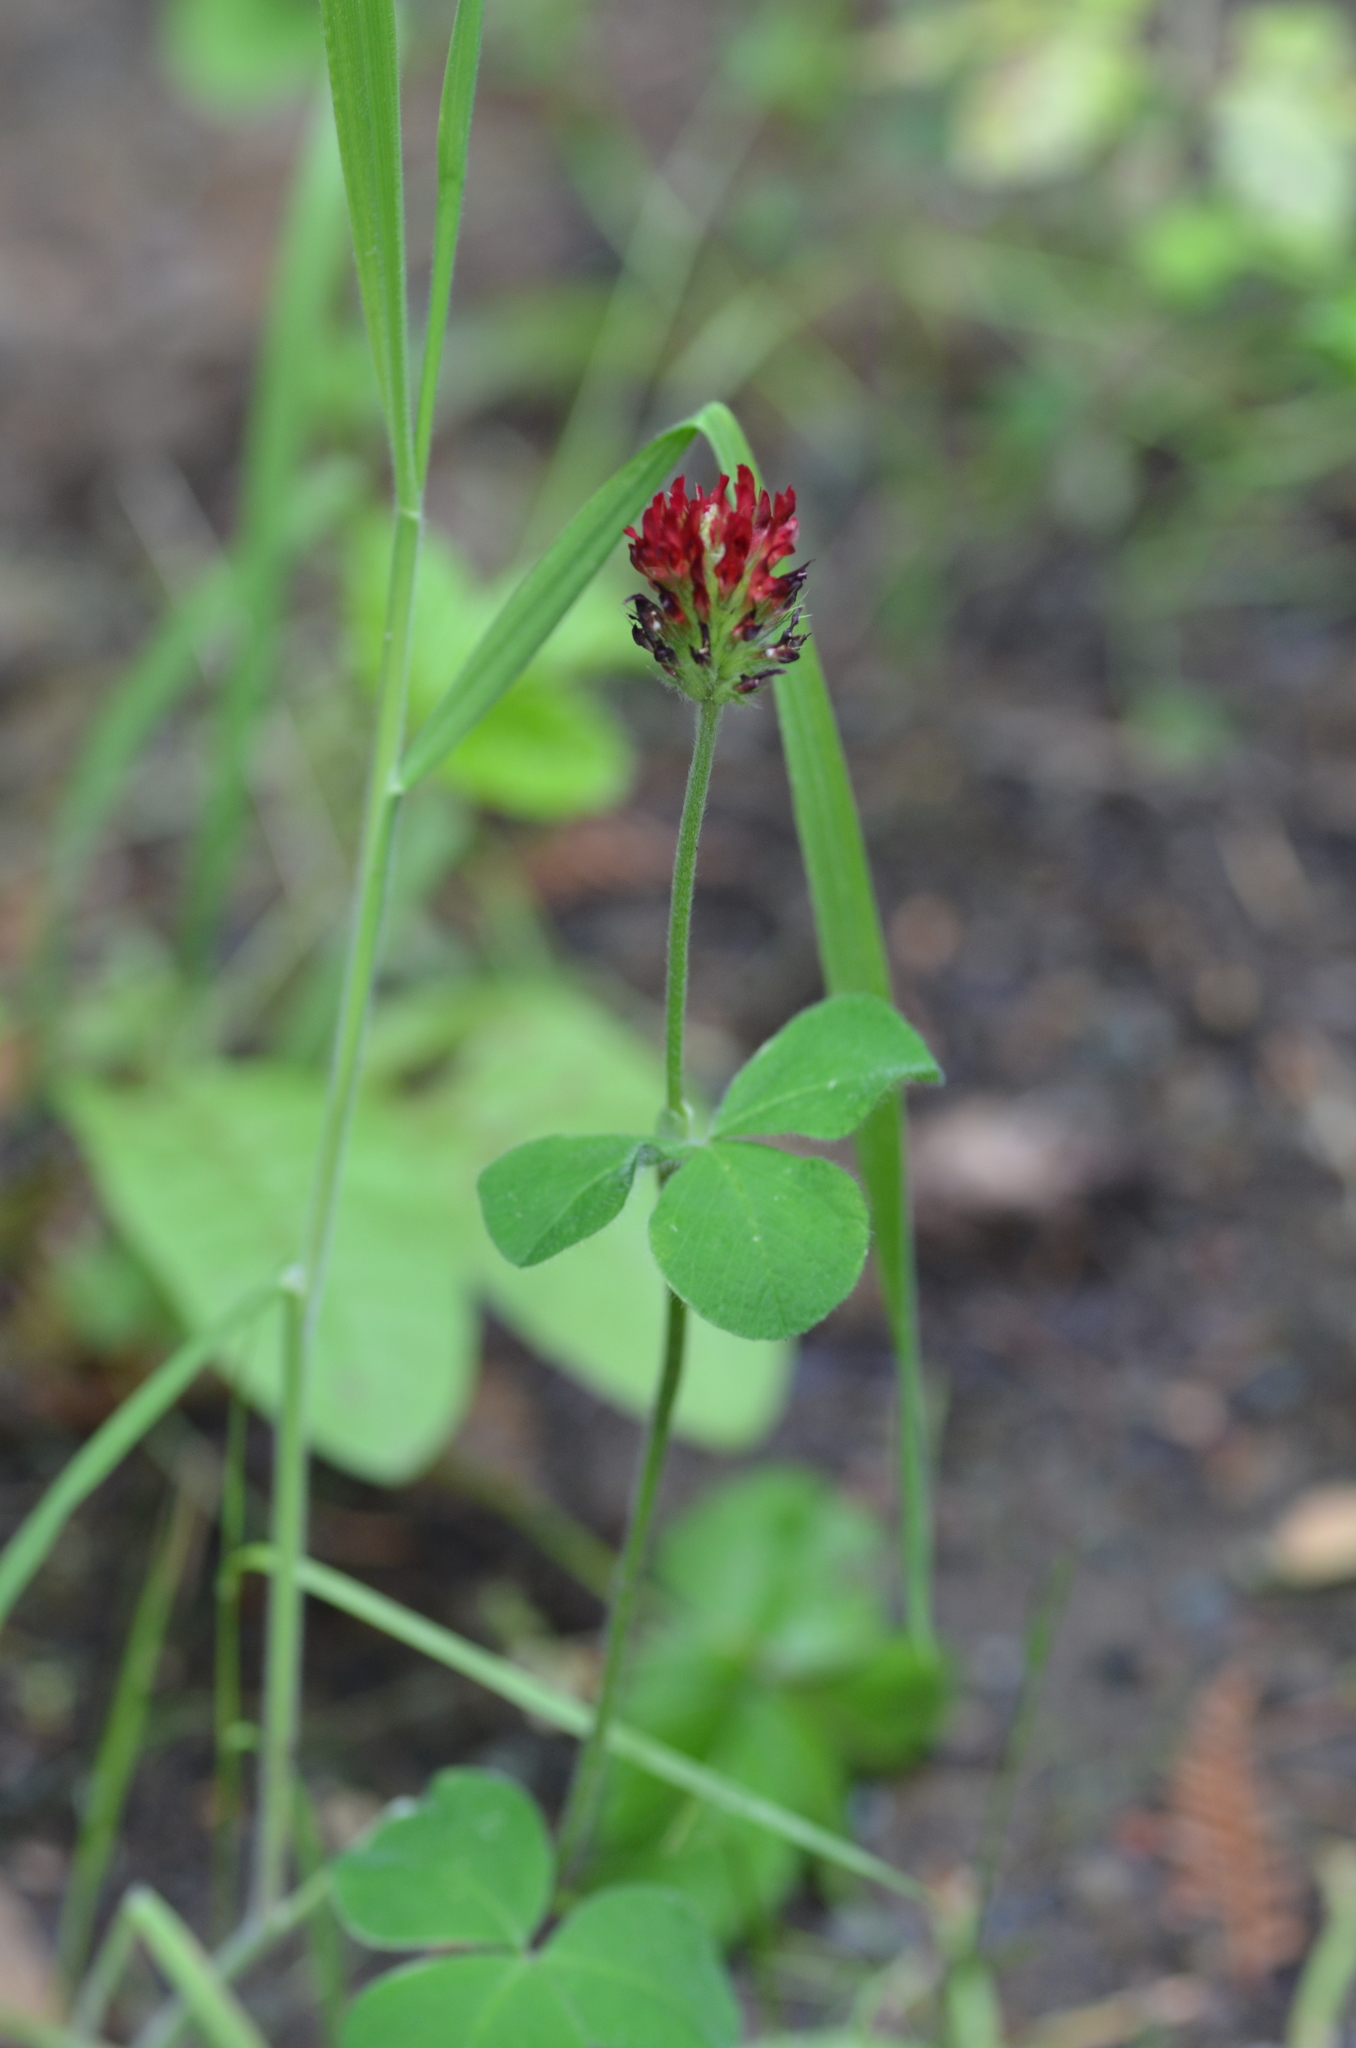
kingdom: Plantae
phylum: Tracheophyta
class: Magnoliopsida
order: Fabales
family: Fabaceae
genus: Trifolium
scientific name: Trifolium incarnatum
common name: Crimson clover
